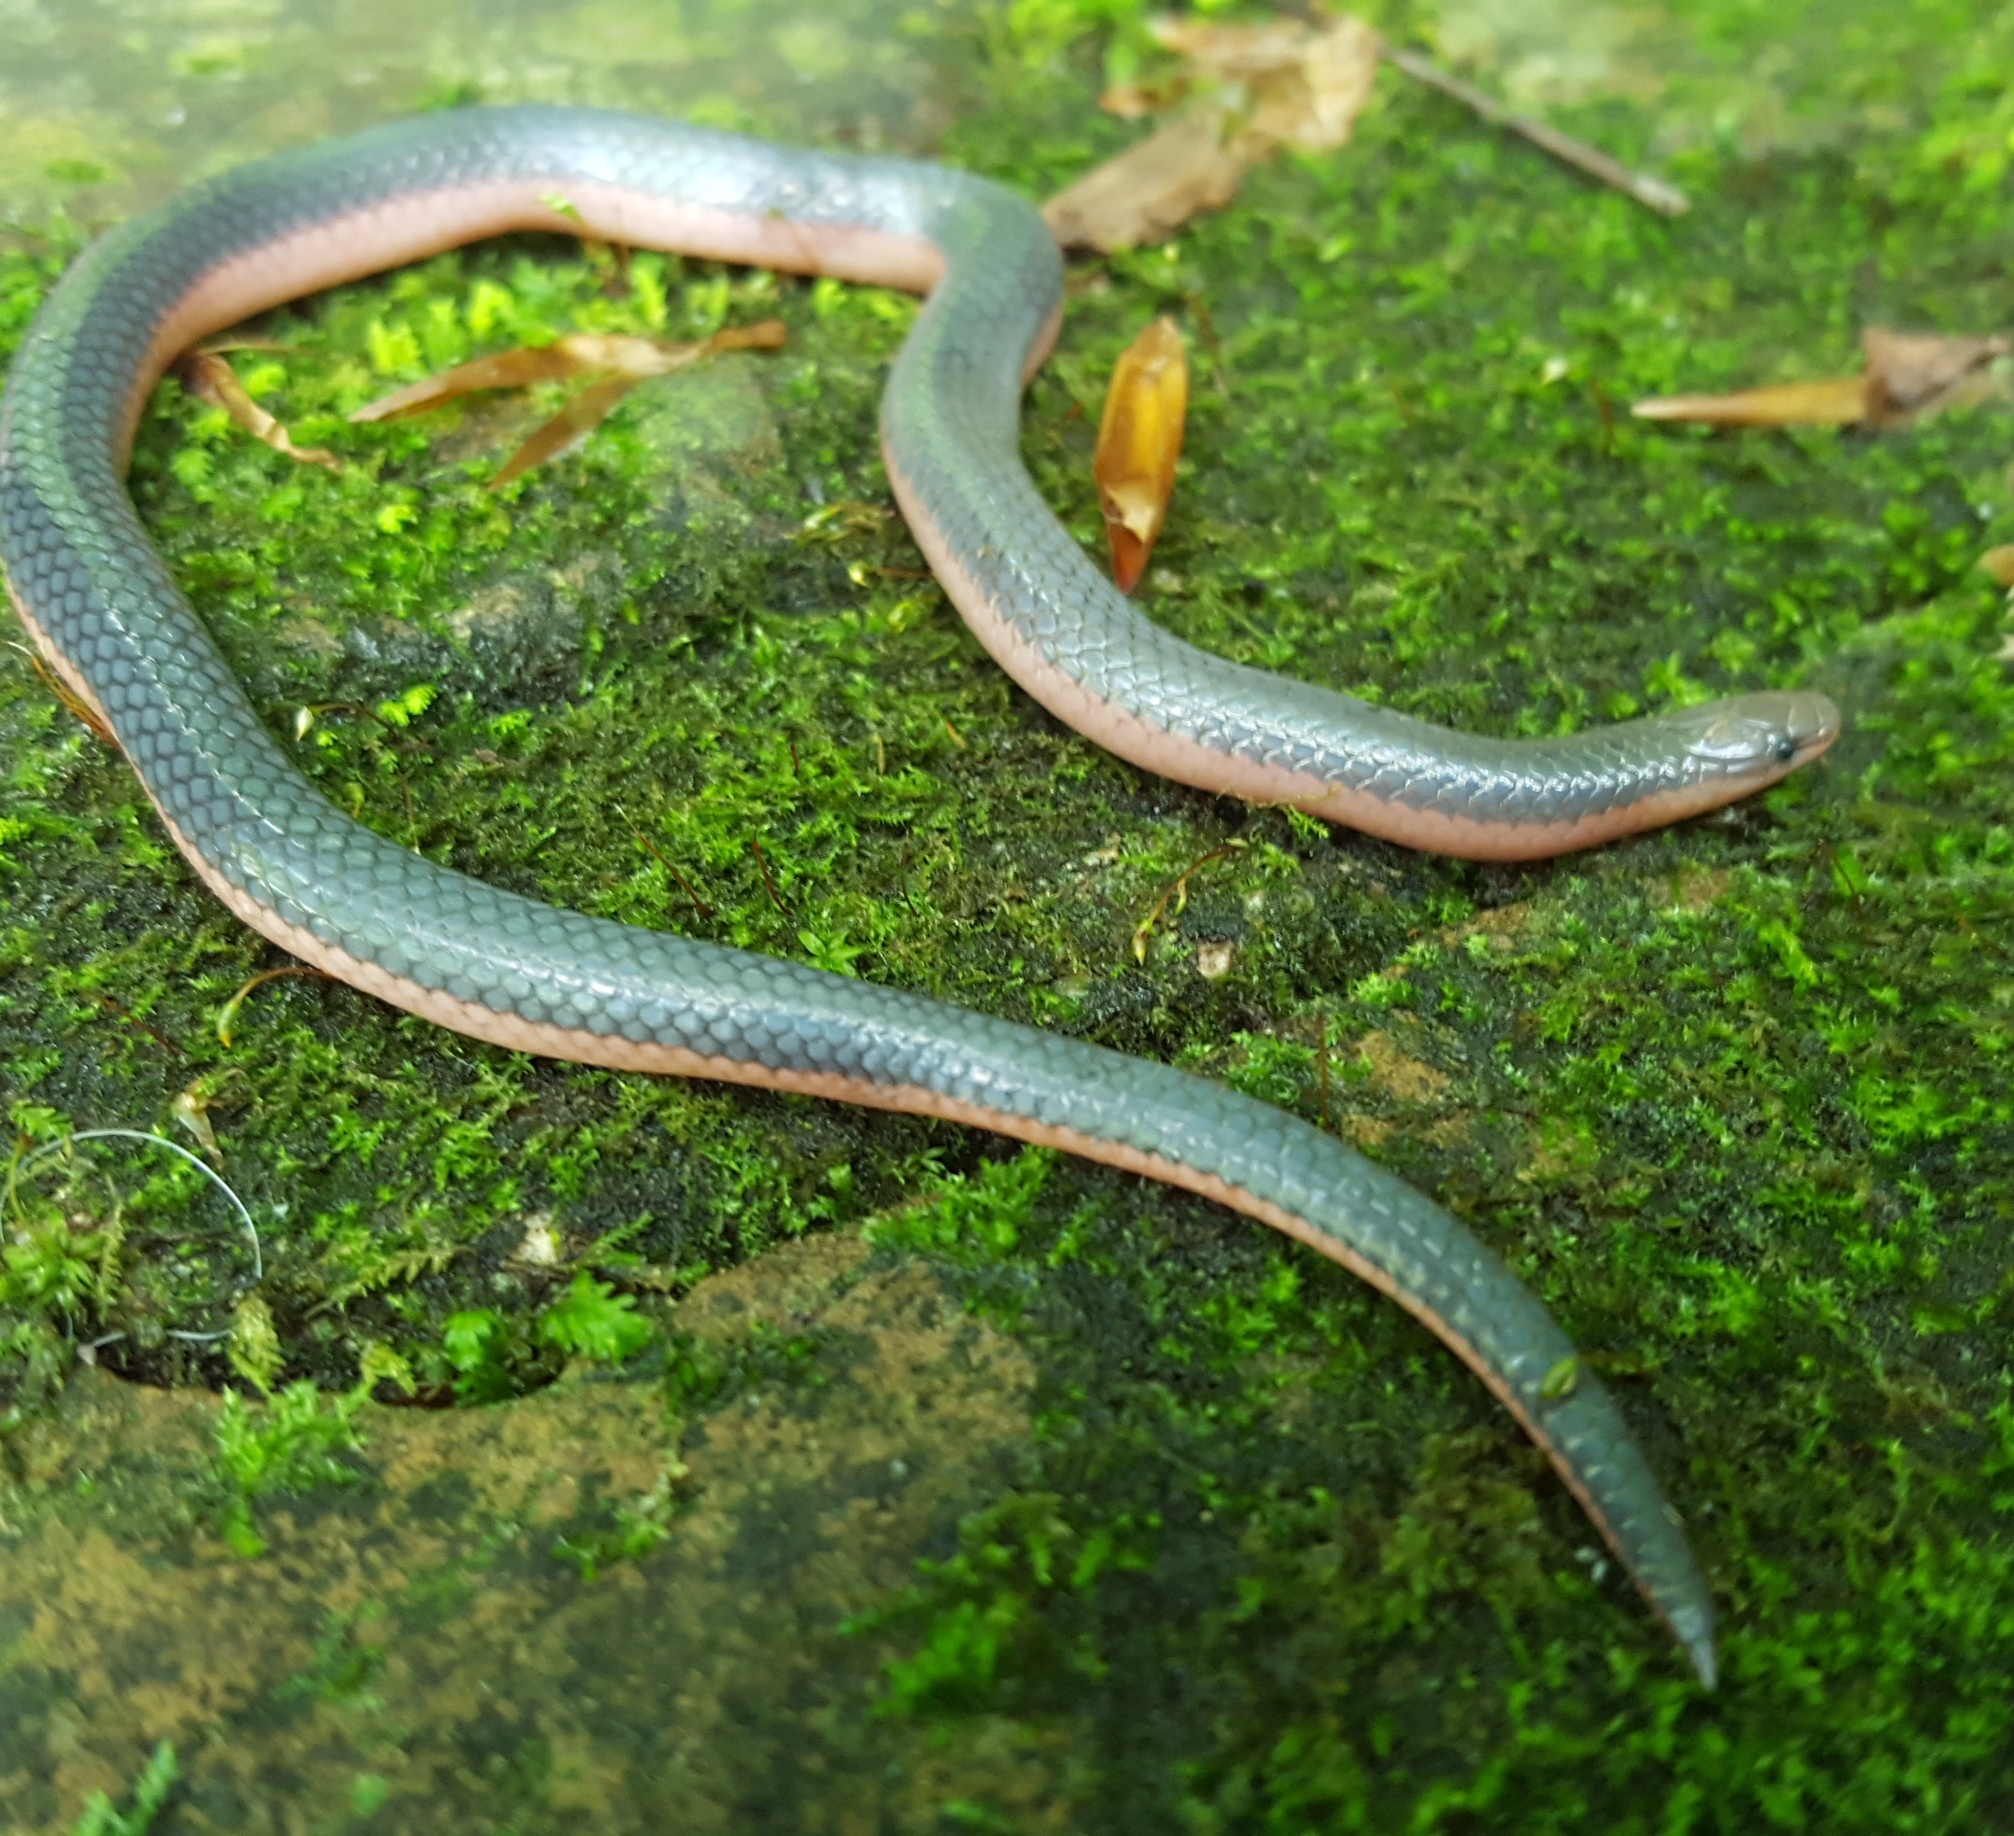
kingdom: Animalia
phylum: Chordata
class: Squamata
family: Colubridae
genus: Carphophis
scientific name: Carphophis vermis
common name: Western worm snake
